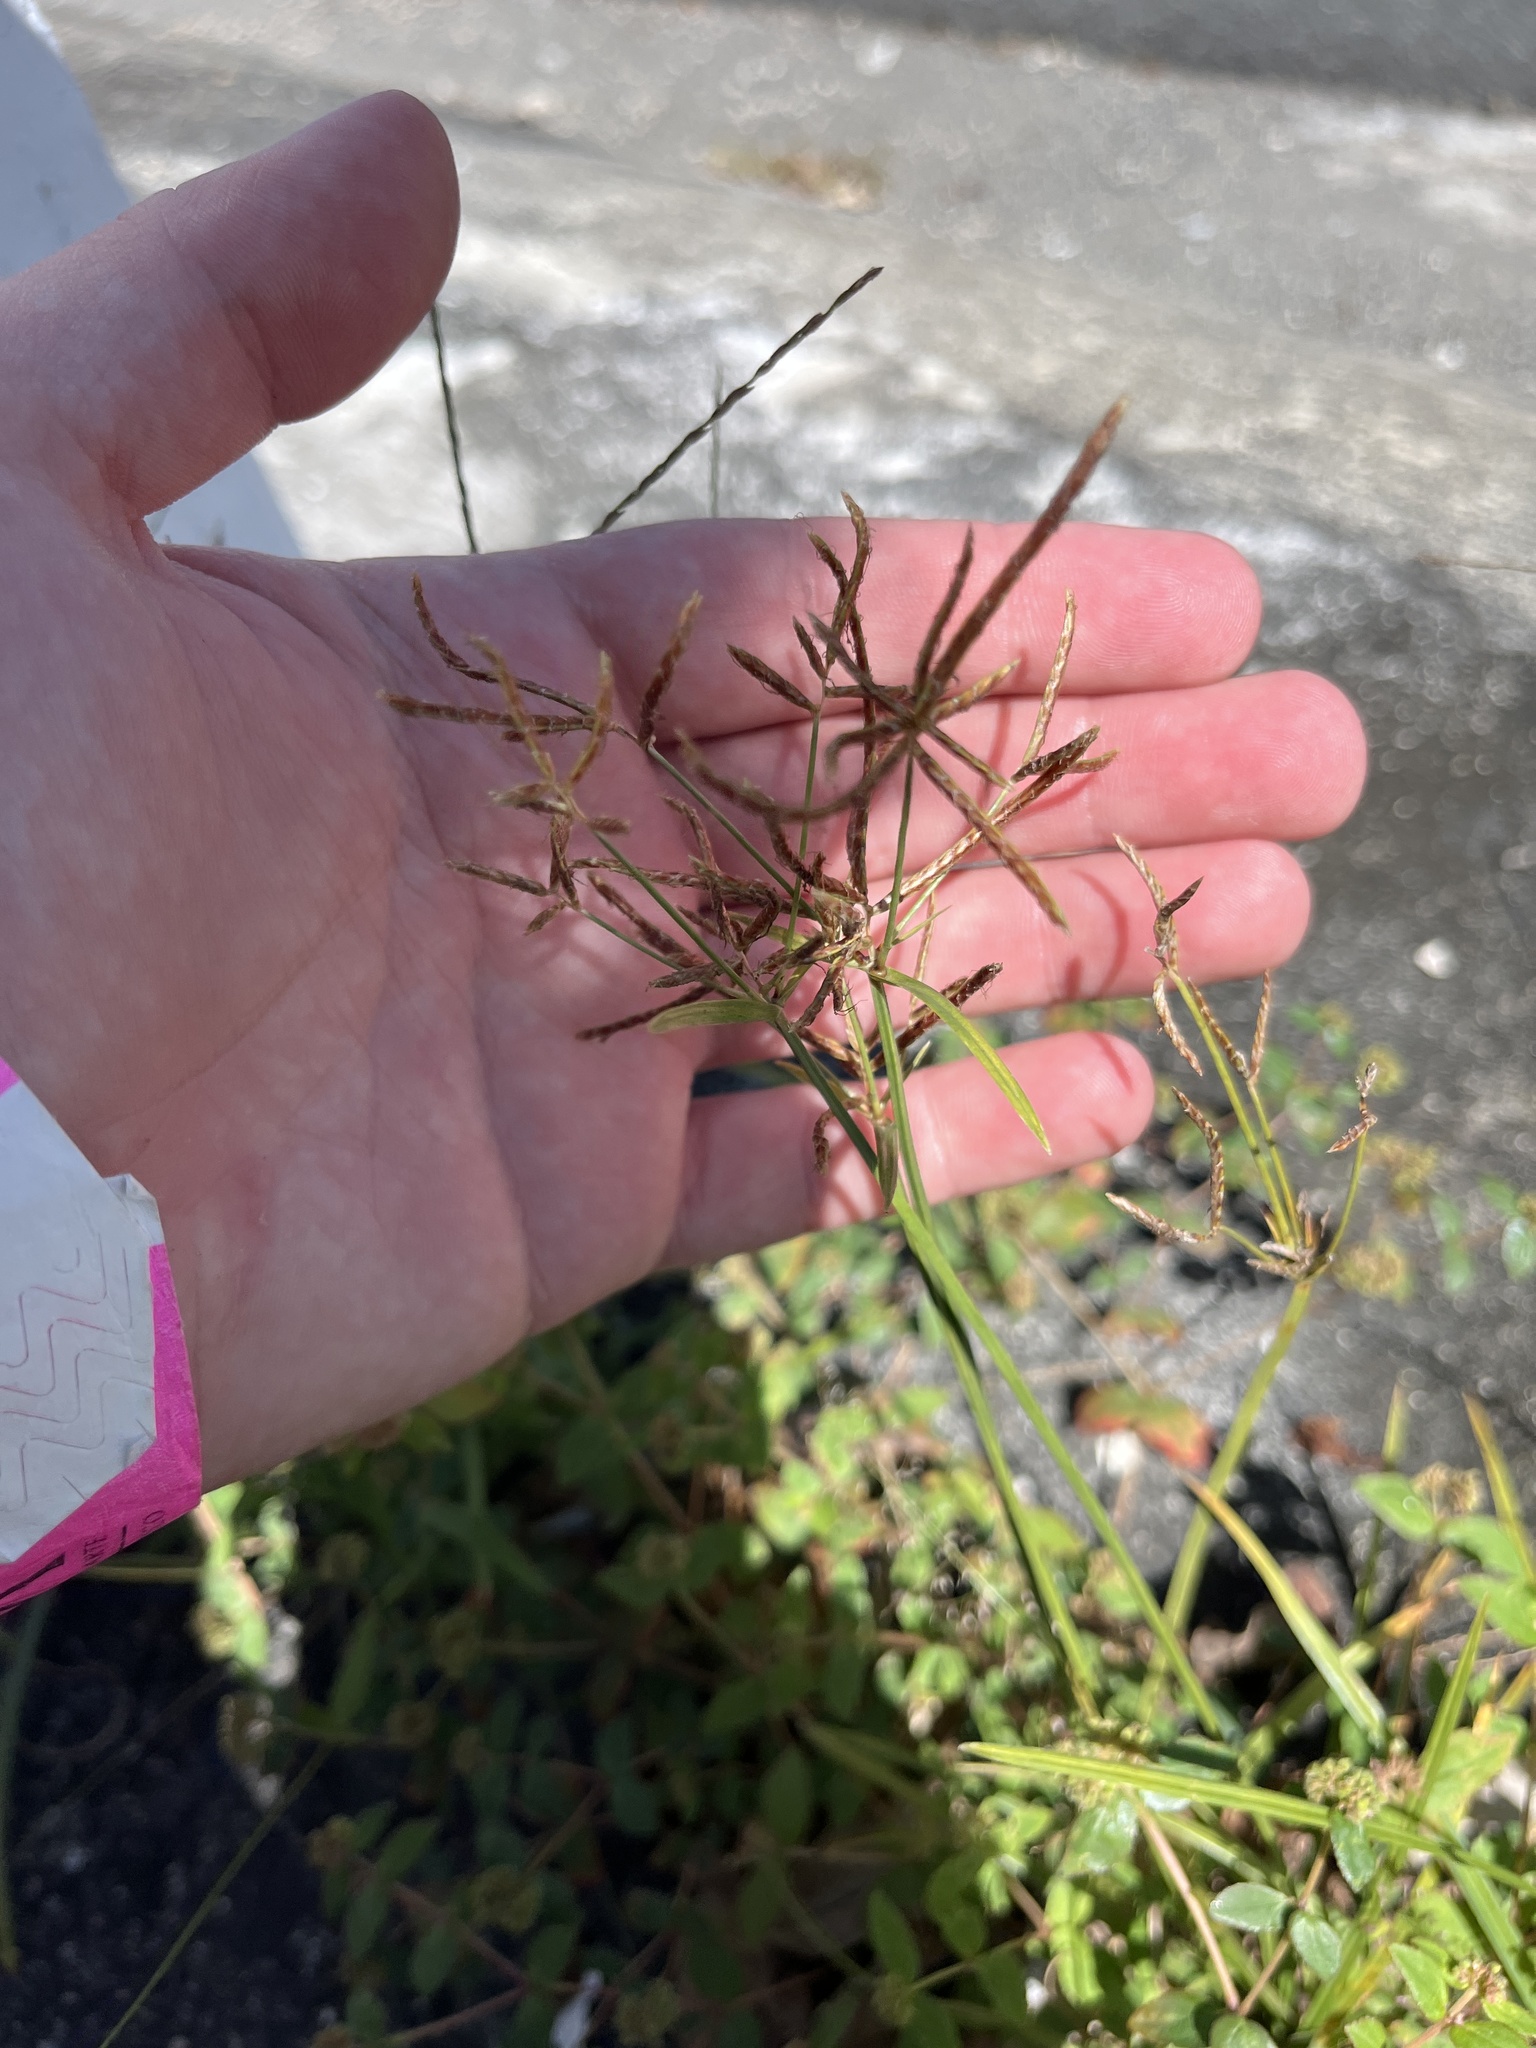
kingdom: Plantae
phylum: Tracheophyta
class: Liliopsida
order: Poales
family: Cyperaceae
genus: Cyperus
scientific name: Cyperus rotundus
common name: Nutgrass
